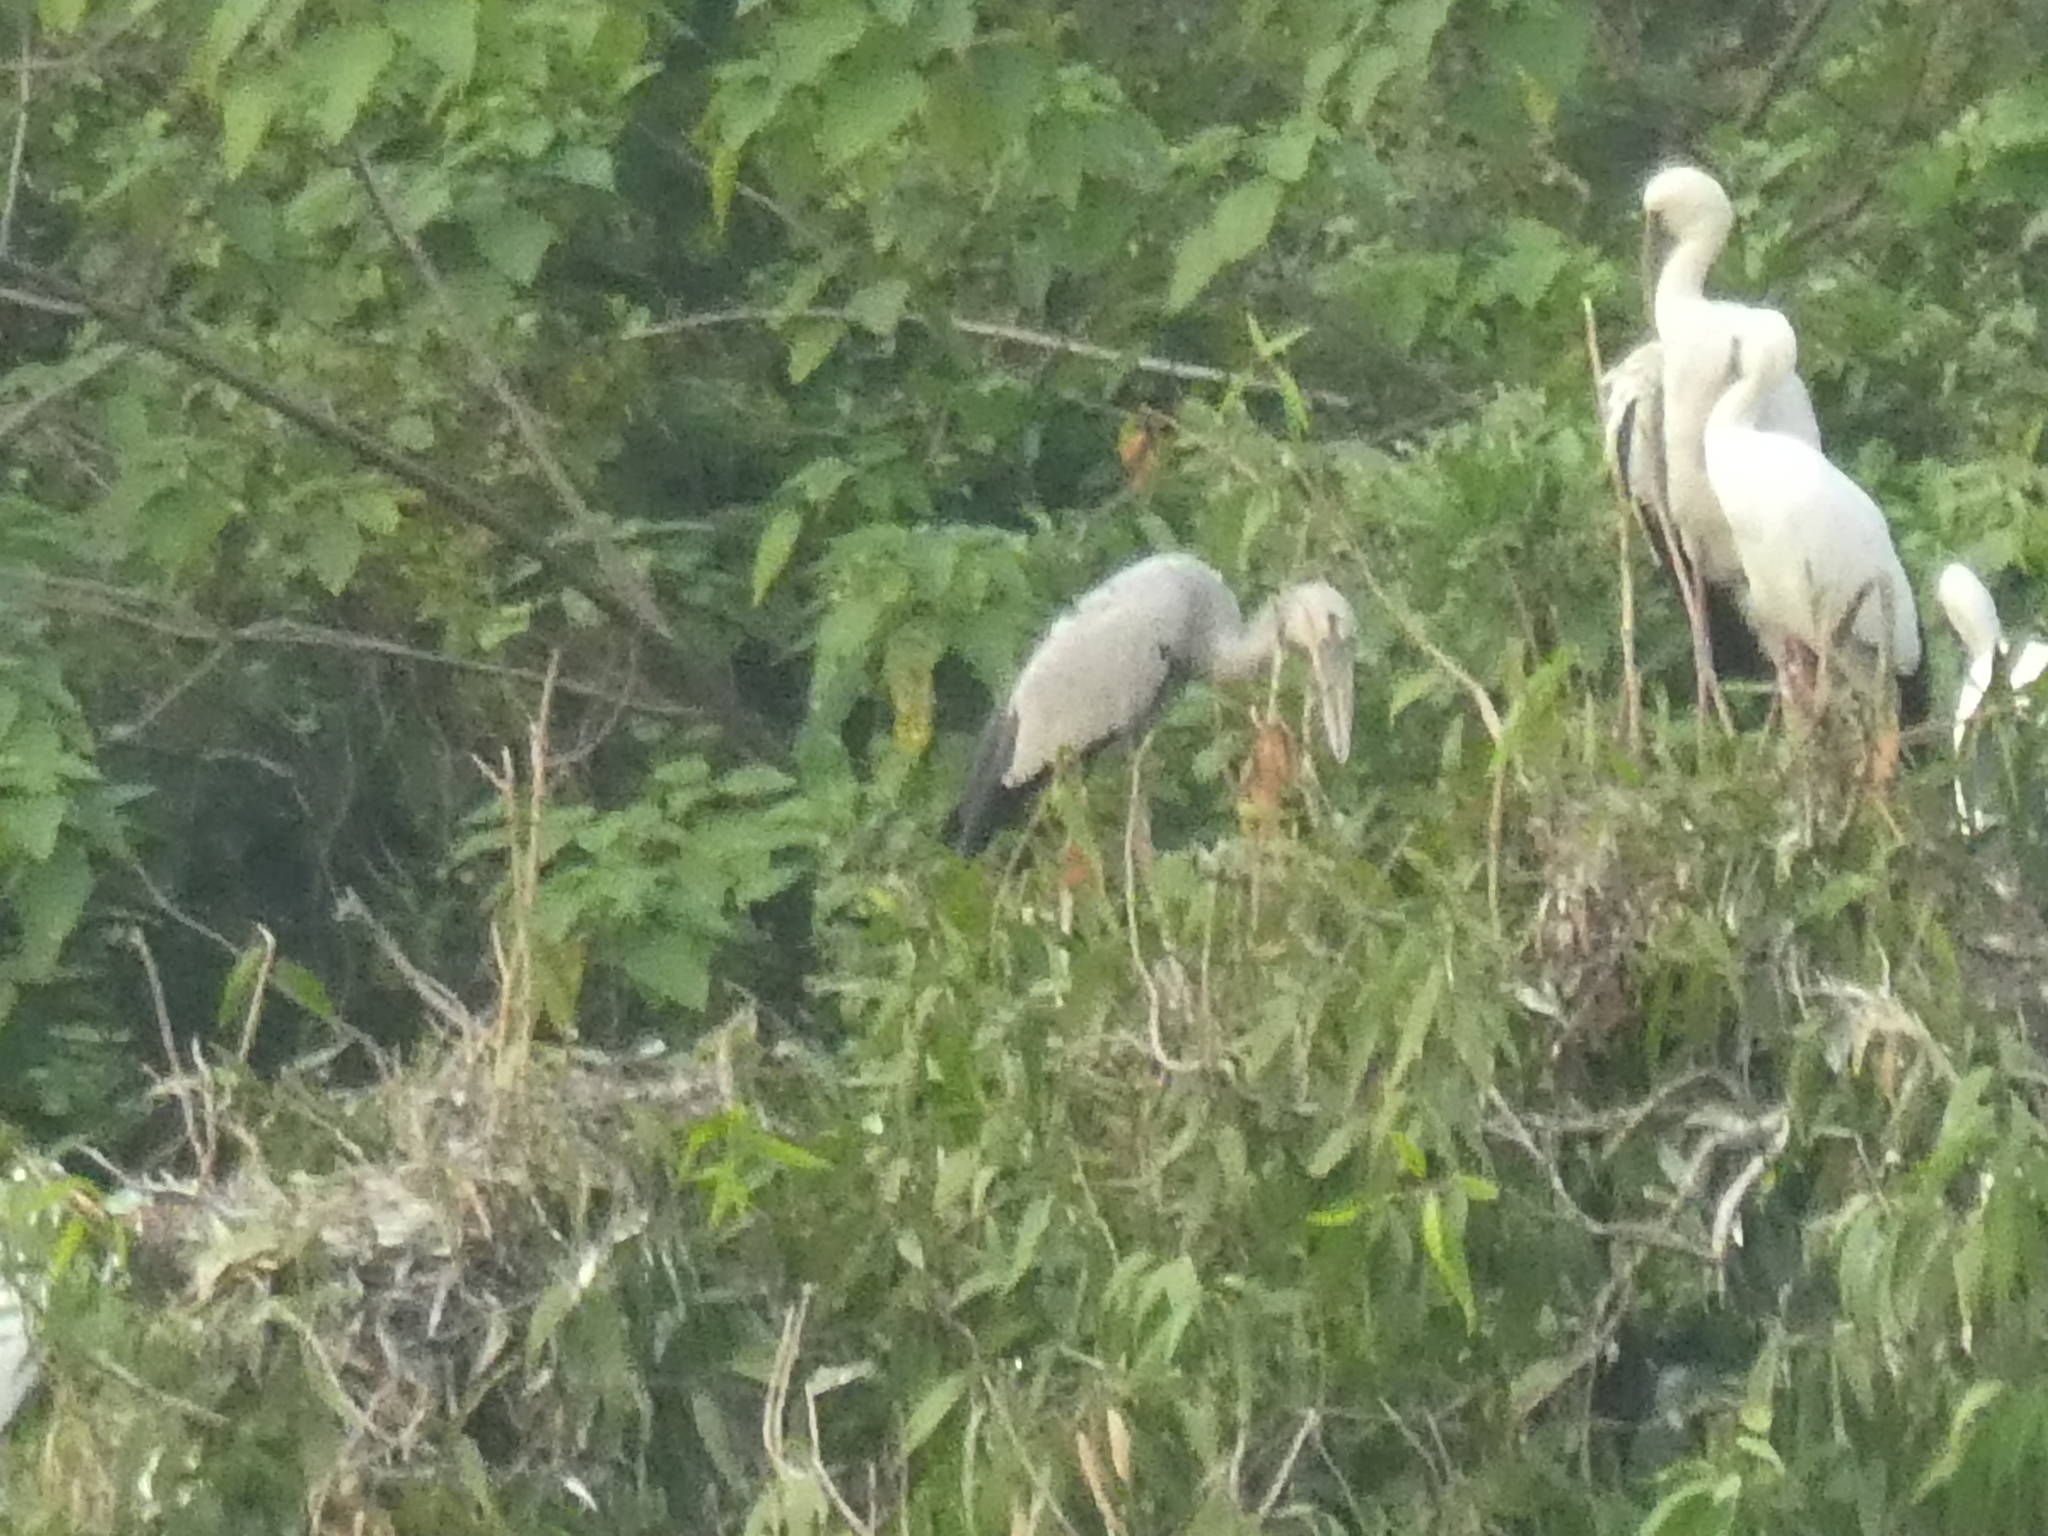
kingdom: Animalia
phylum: Chordata
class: Aves
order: Ciconiiformes
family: Ciconiidae
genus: Anastomus
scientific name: Anastomus oscitans
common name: Asian openbill
